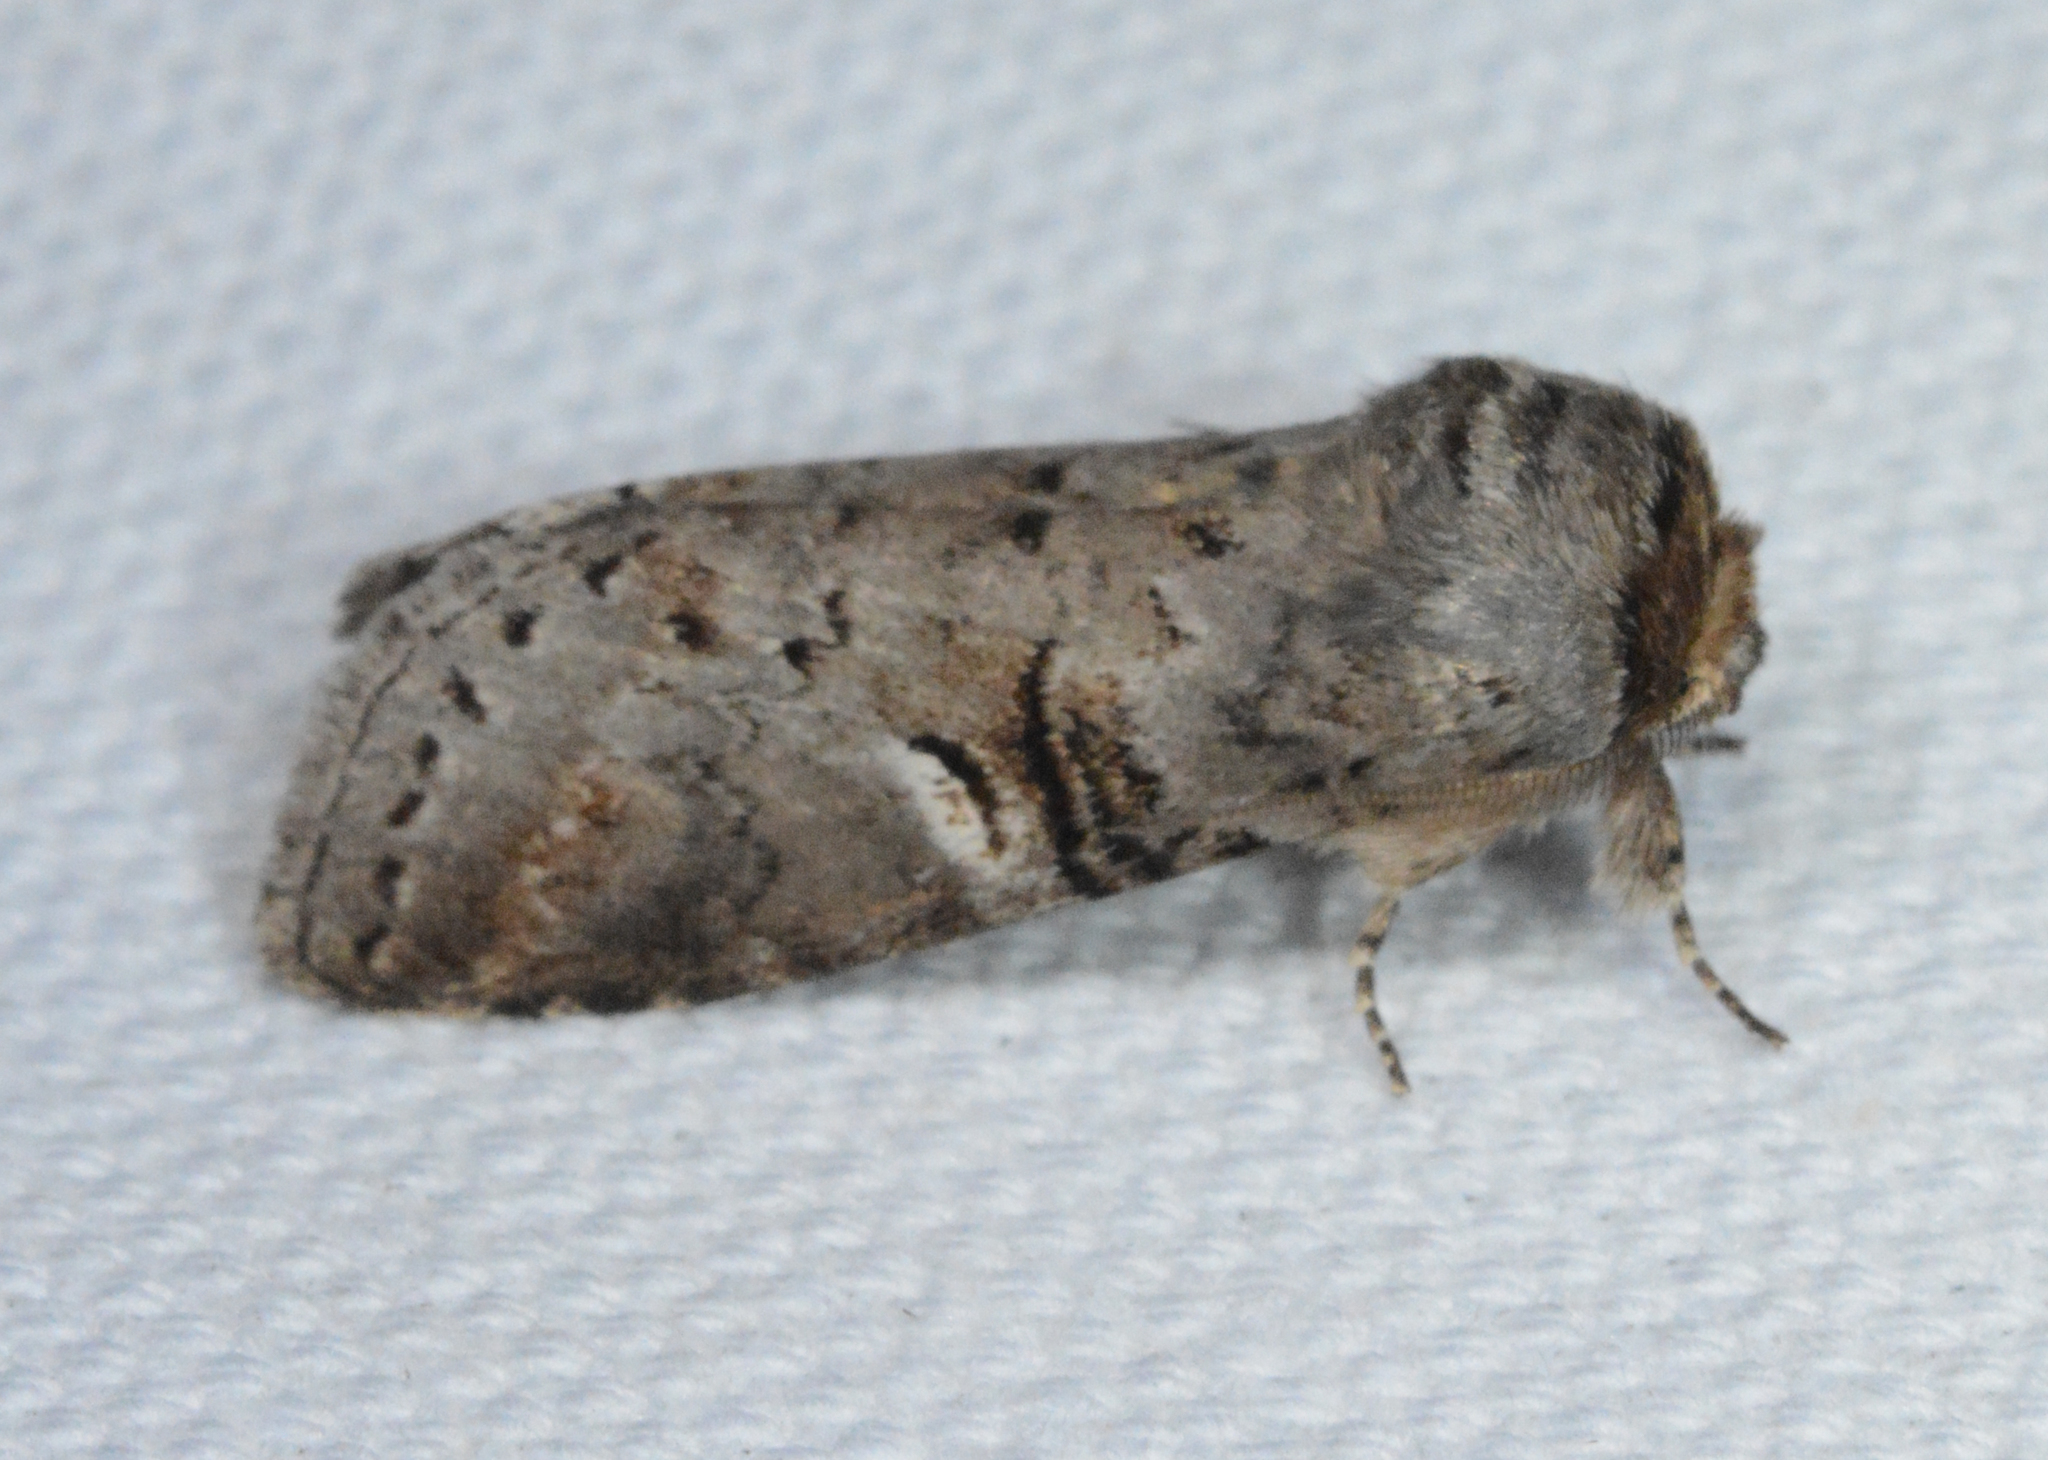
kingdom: Animalia
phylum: Arthropoda
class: Insecta
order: Lepidoptera
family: Notodontidae
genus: Ellida
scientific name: Ellida caniplaga
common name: Linden prominent
